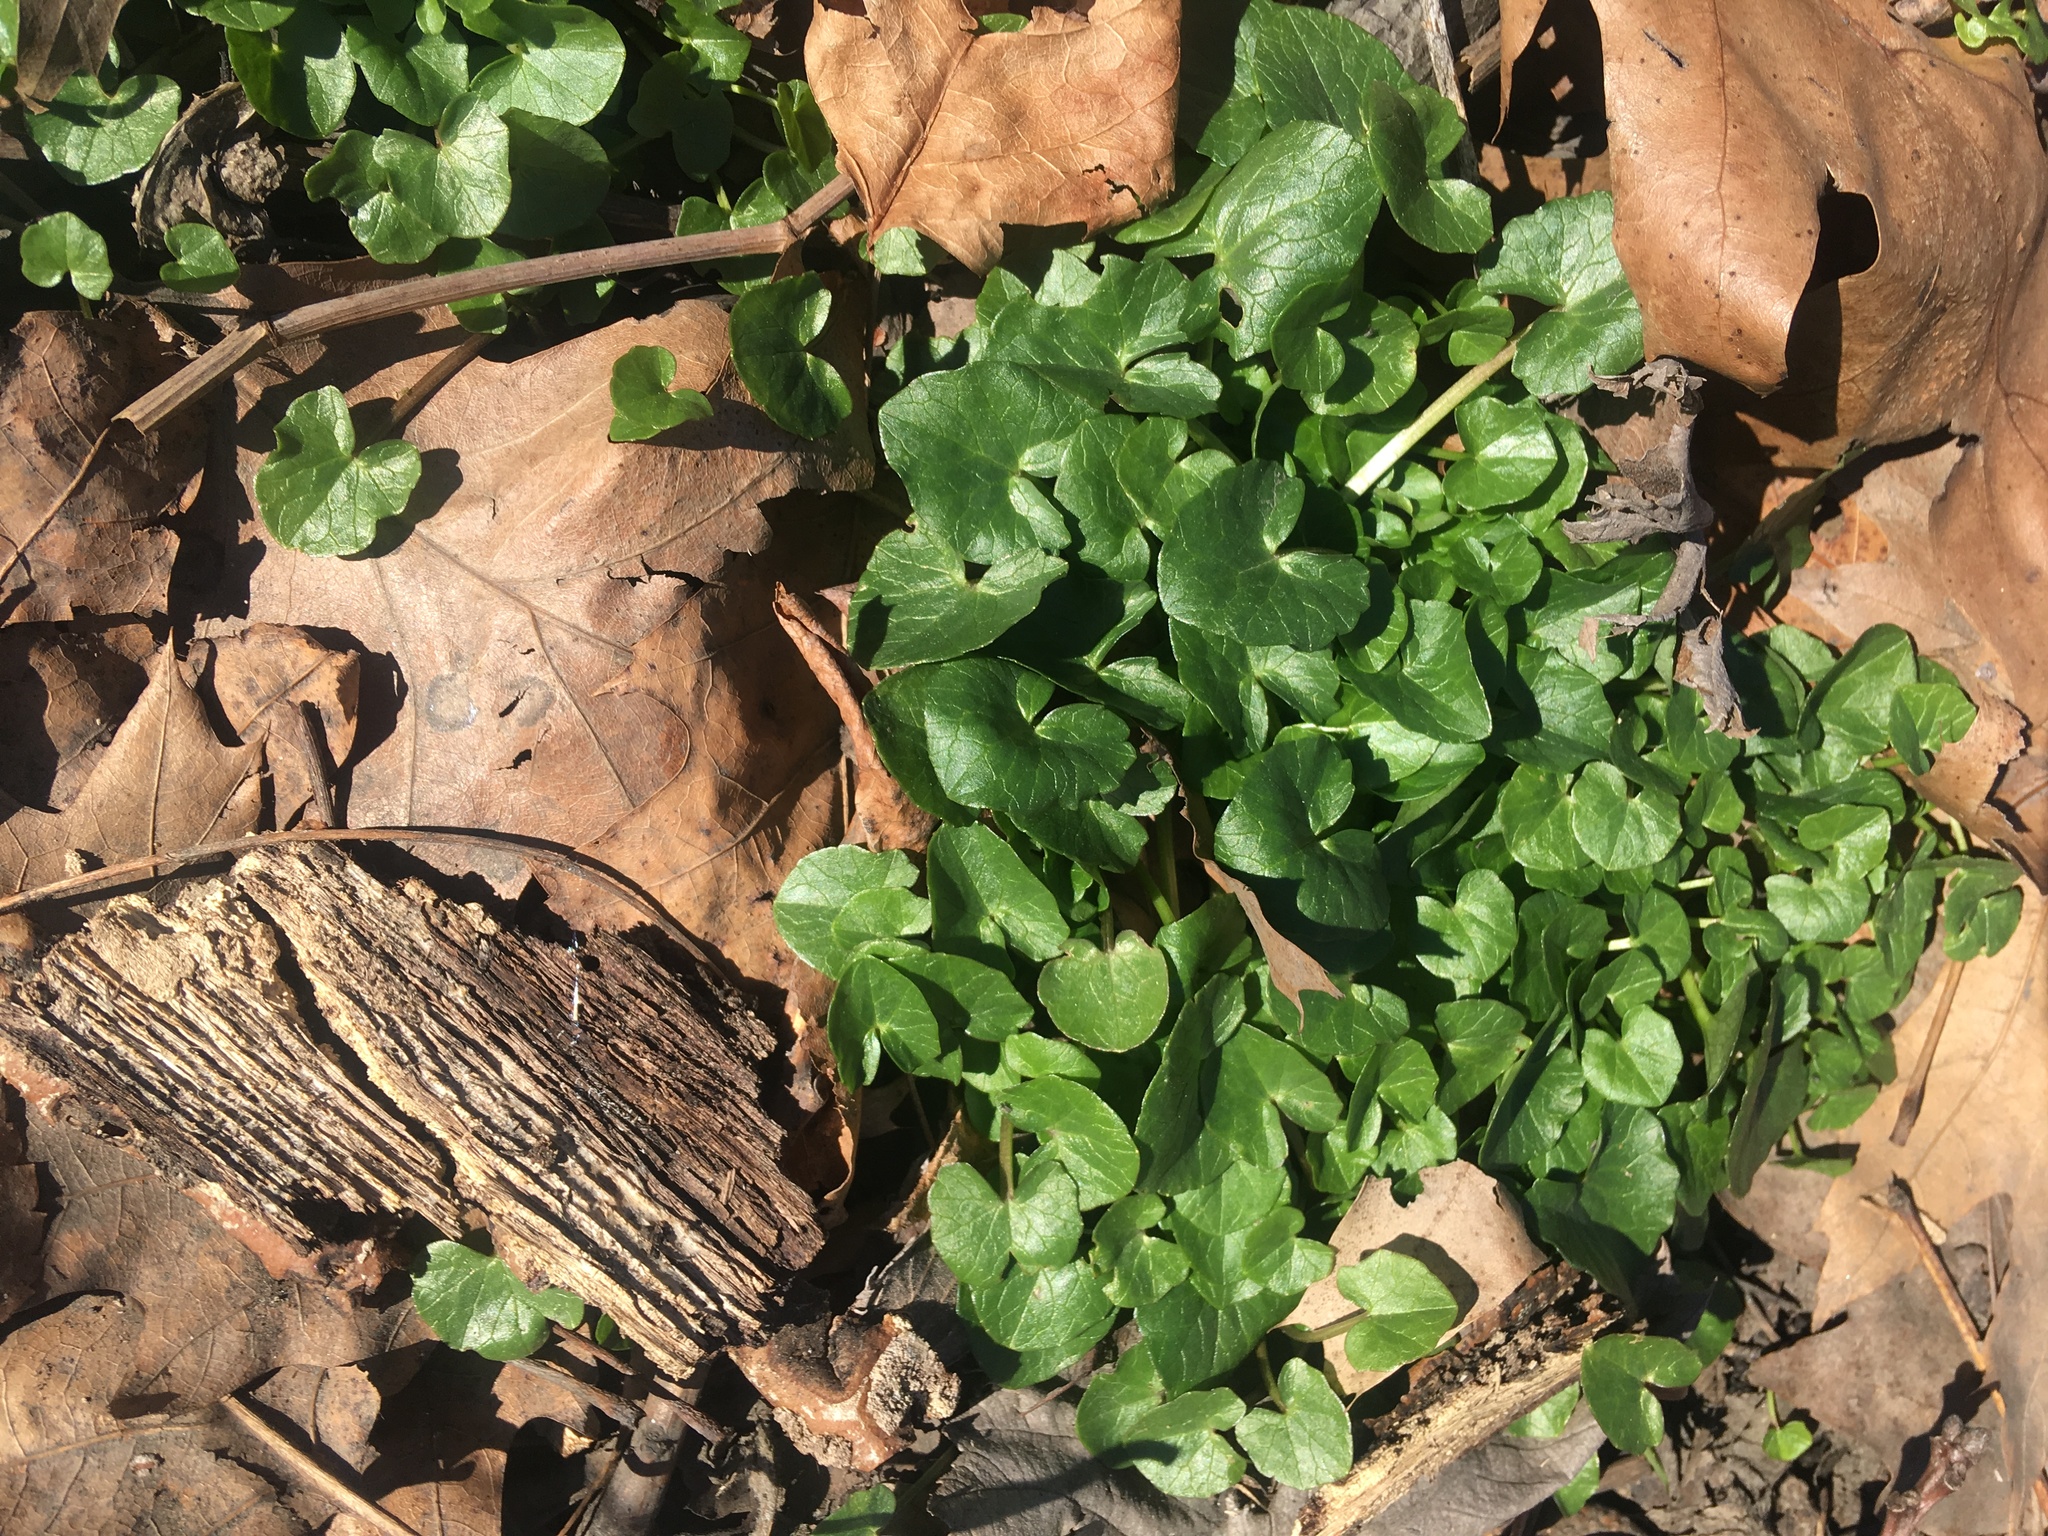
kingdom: Plantae
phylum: Tracheophyta
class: Magnoliopsida
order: Ranunculales
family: Ranunculaceae
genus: Ficaria
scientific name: Ficaria verna
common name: Lesser celandine
